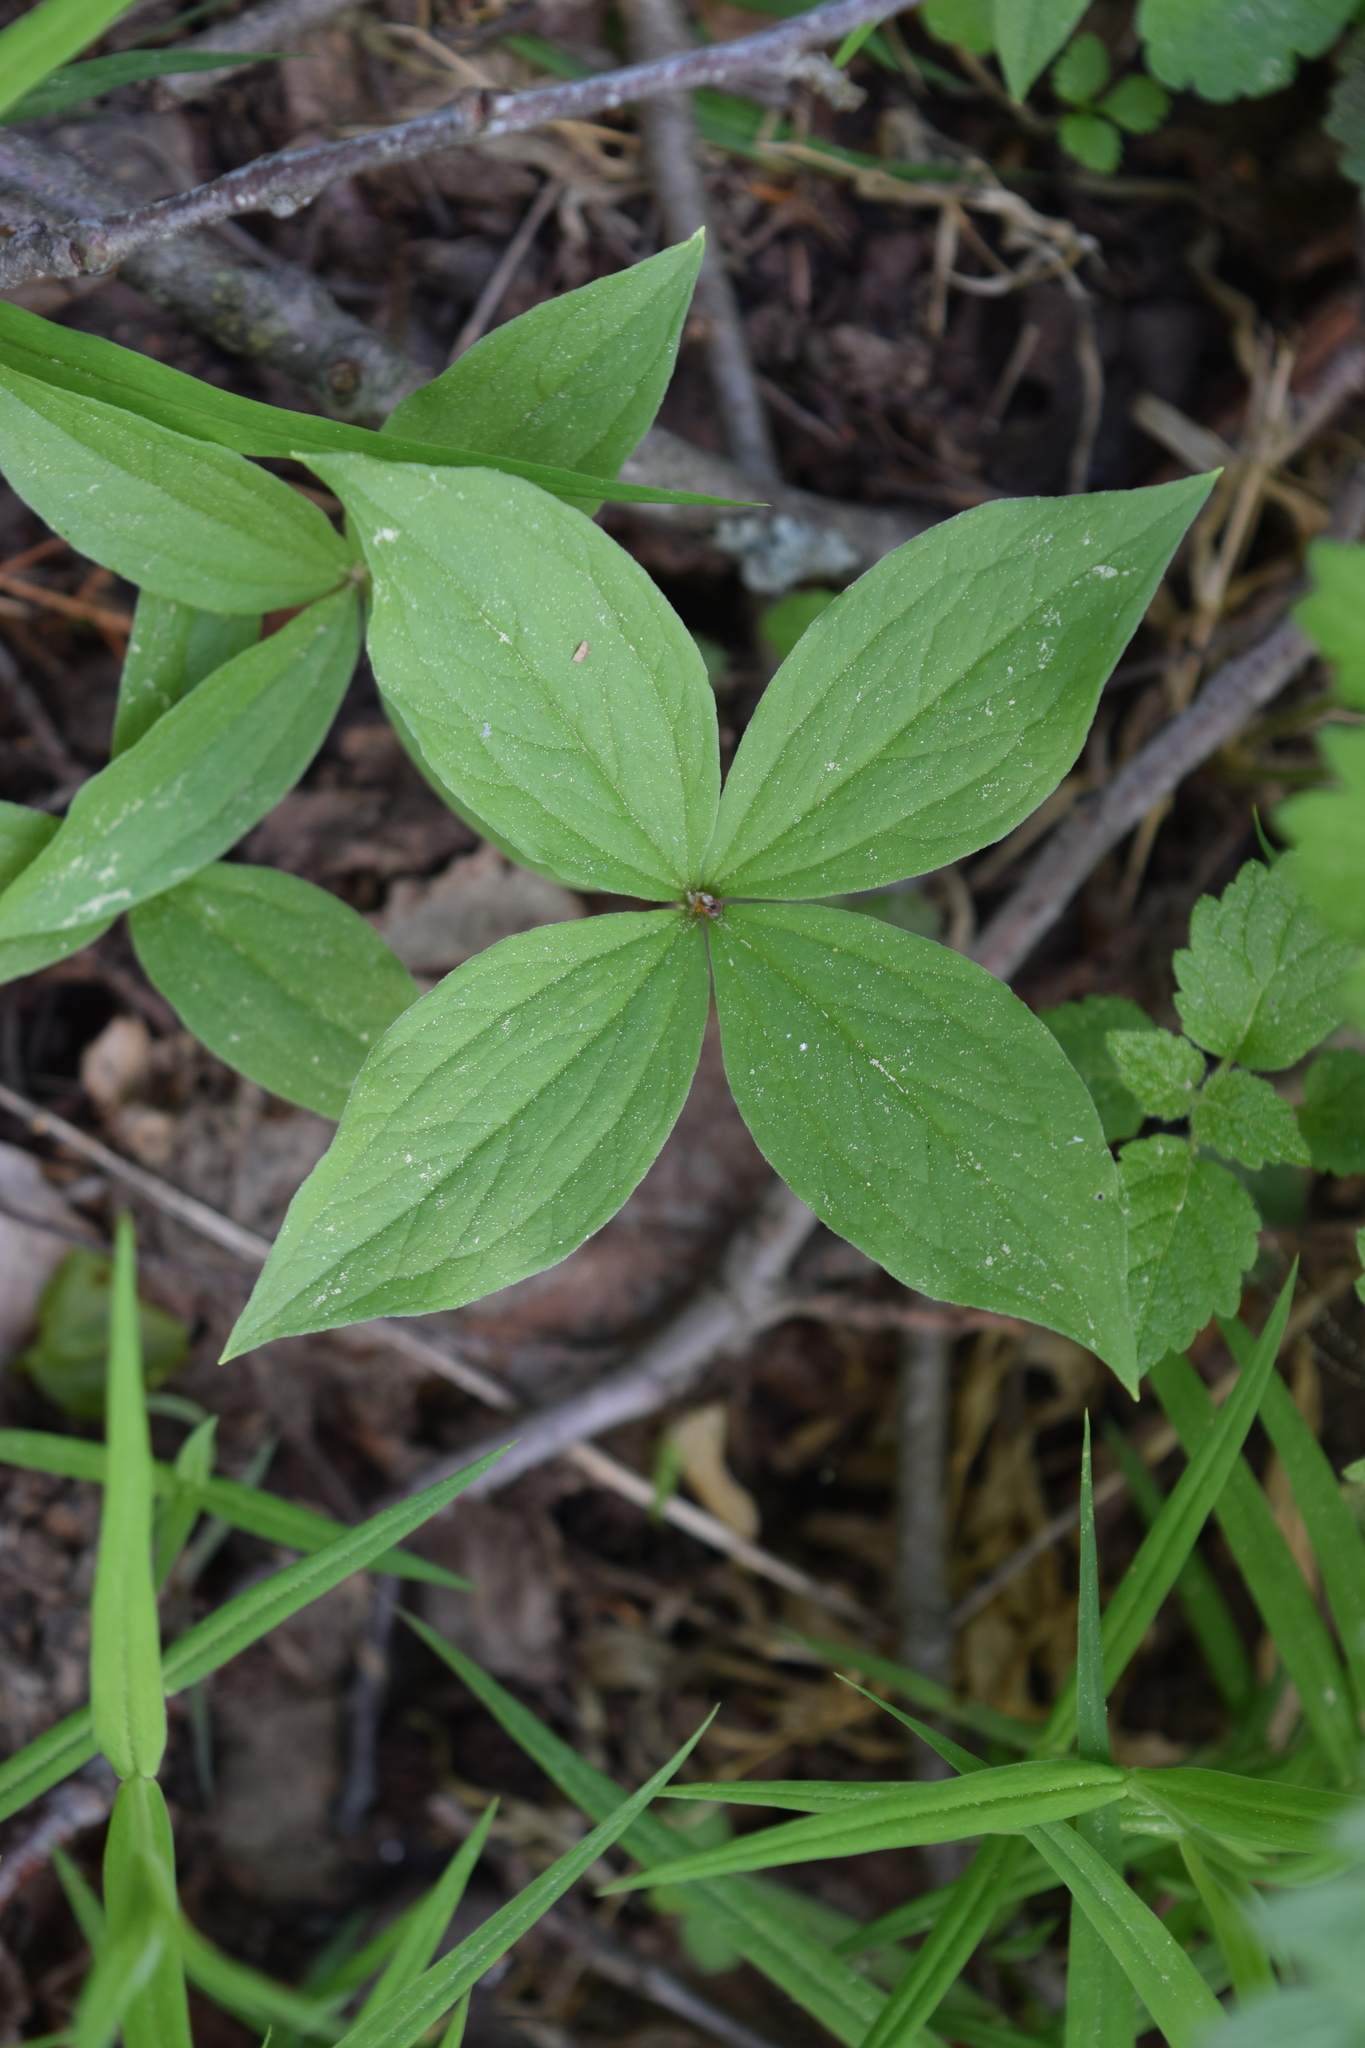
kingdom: Plantae
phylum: Tracheophyta
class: Liliopsida
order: Liliales
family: Melanthiaceae
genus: Paris
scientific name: Paris quadrifolia
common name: Herb-paris
